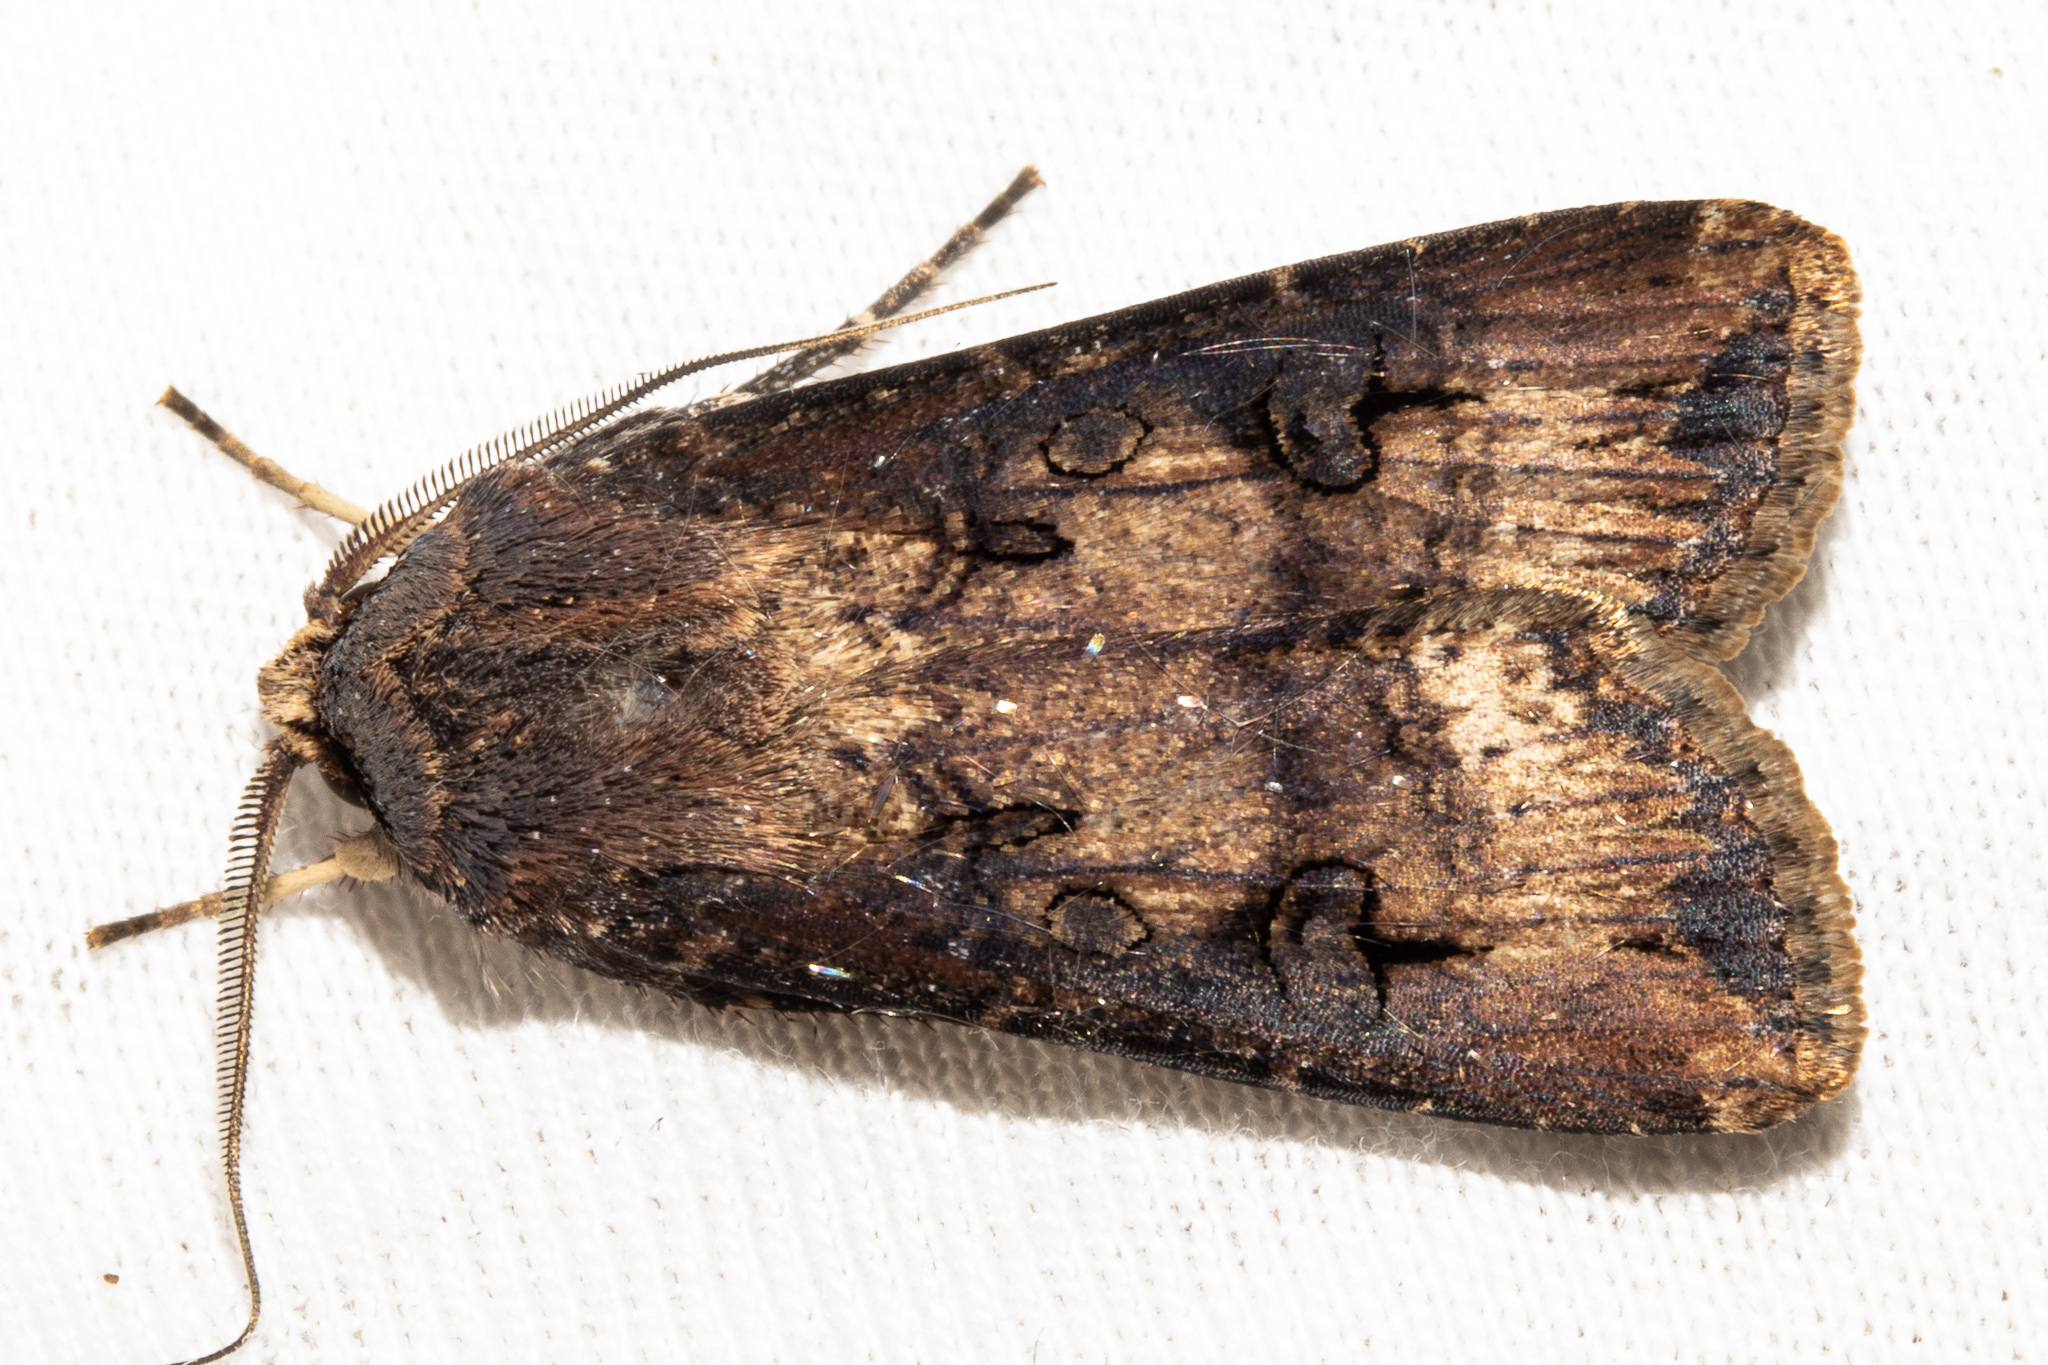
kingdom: Animalia
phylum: Arthropoda
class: Insecta
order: Lepidoptera
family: Noctuidae
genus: Agrotis
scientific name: Agrotis ipsilon
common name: Dark sword-grass
